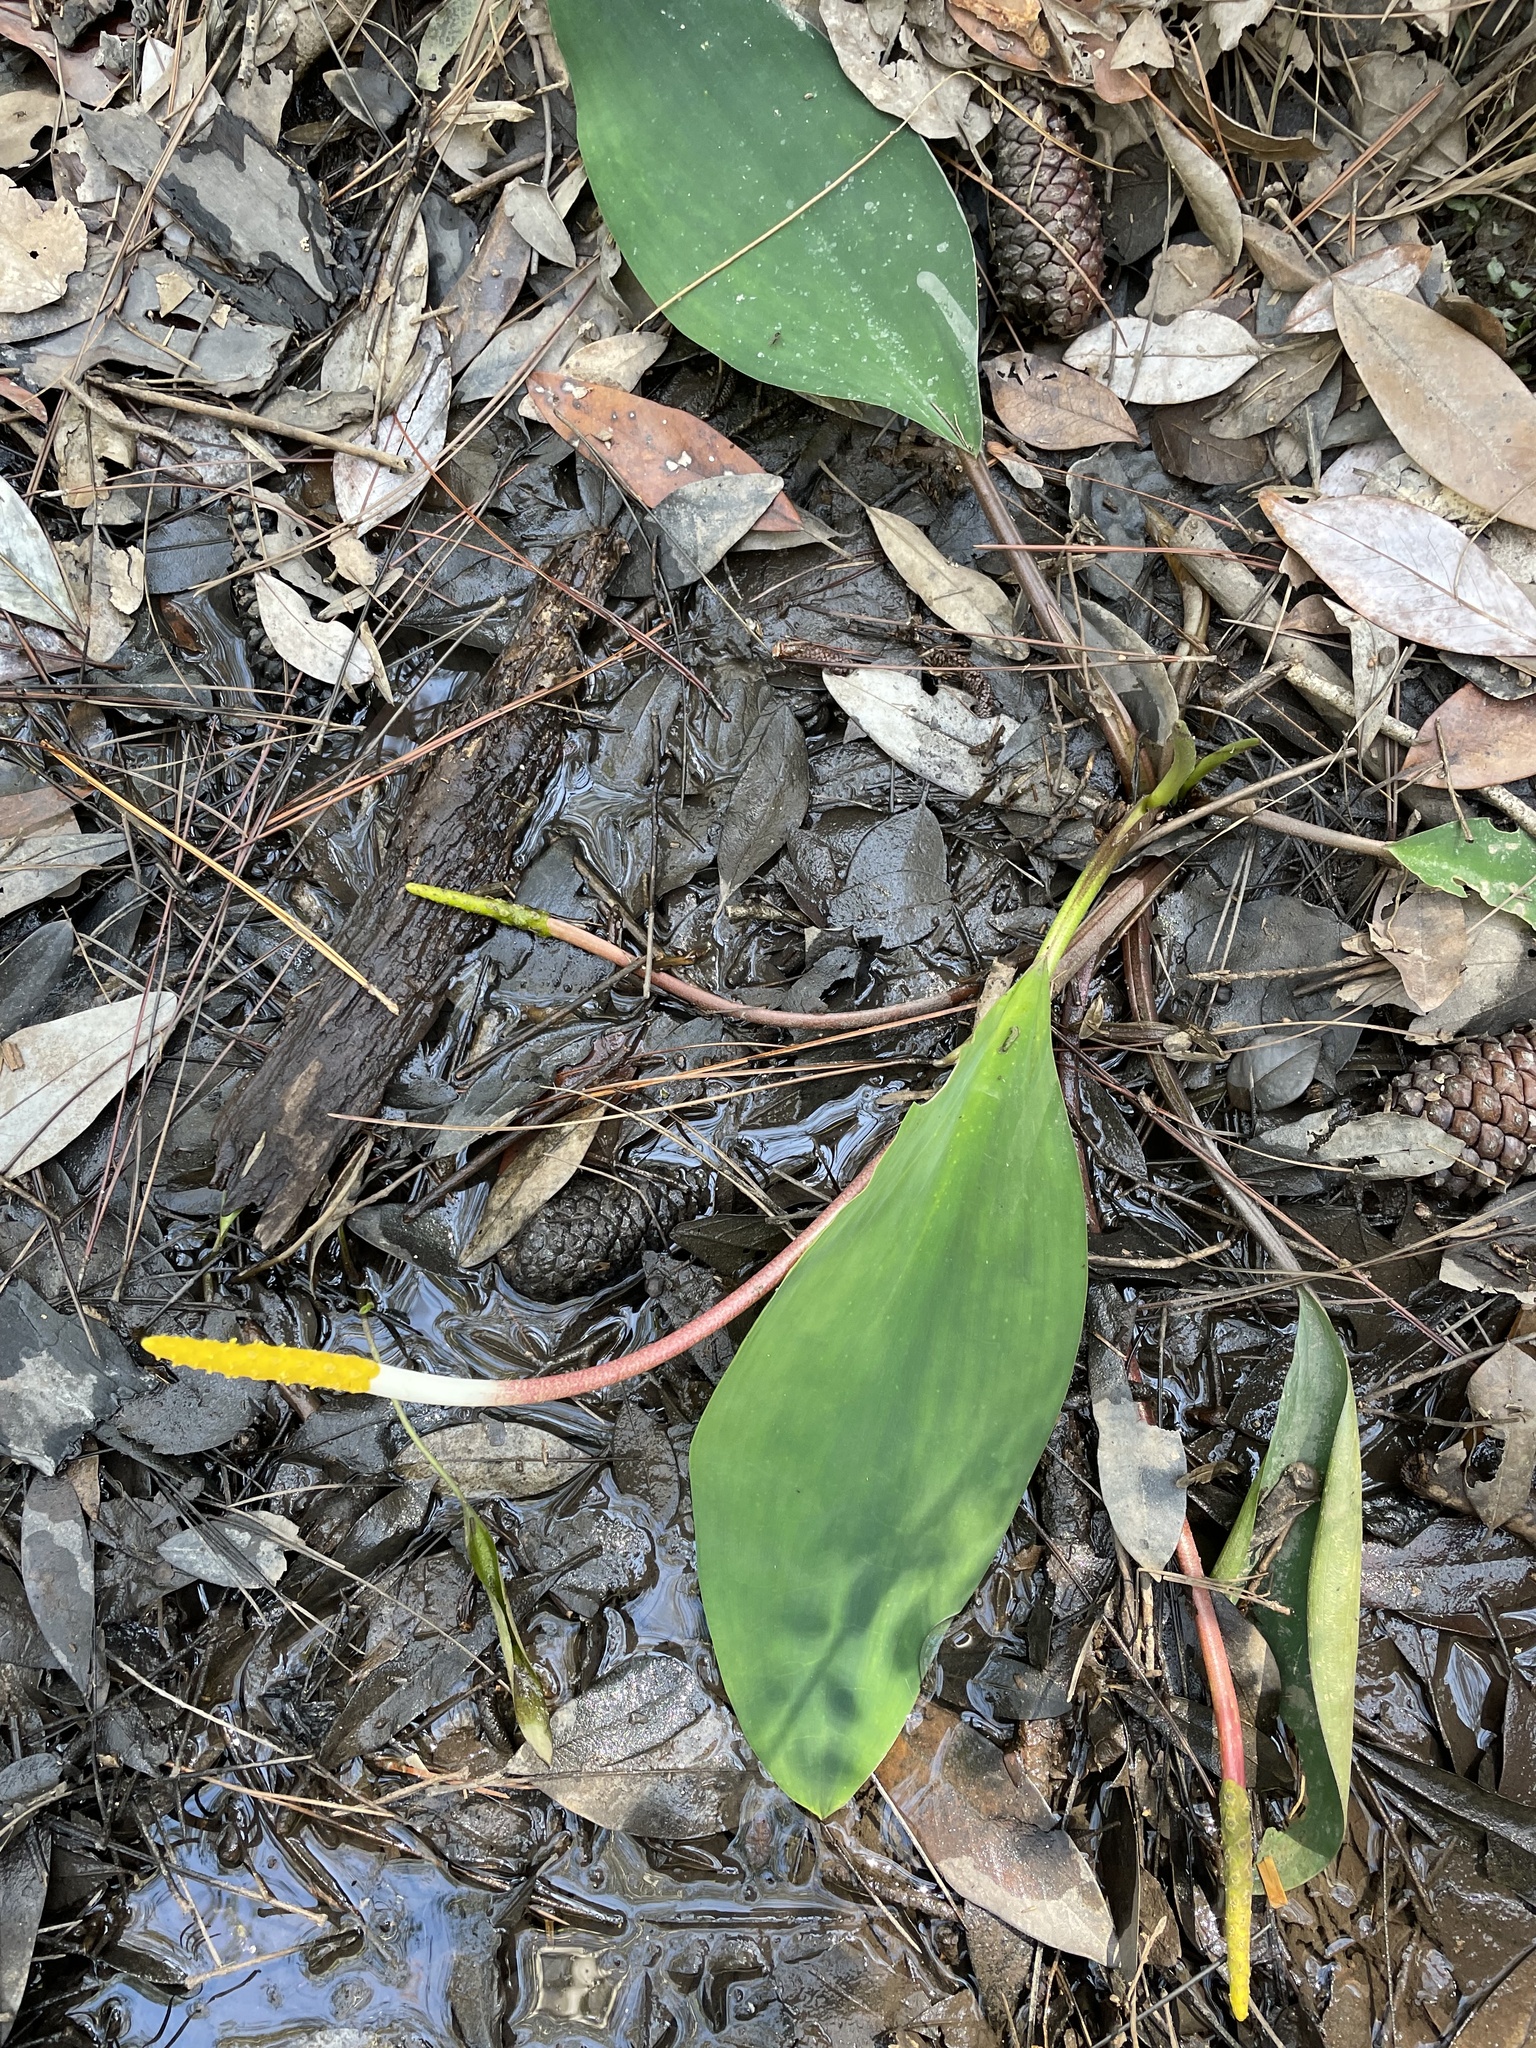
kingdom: Plantae
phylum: Tracheophyta
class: Liliopsida
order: Alismatales
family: Araceae
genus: Orontium
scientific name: Orontium aquaticum
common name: Golden-club
